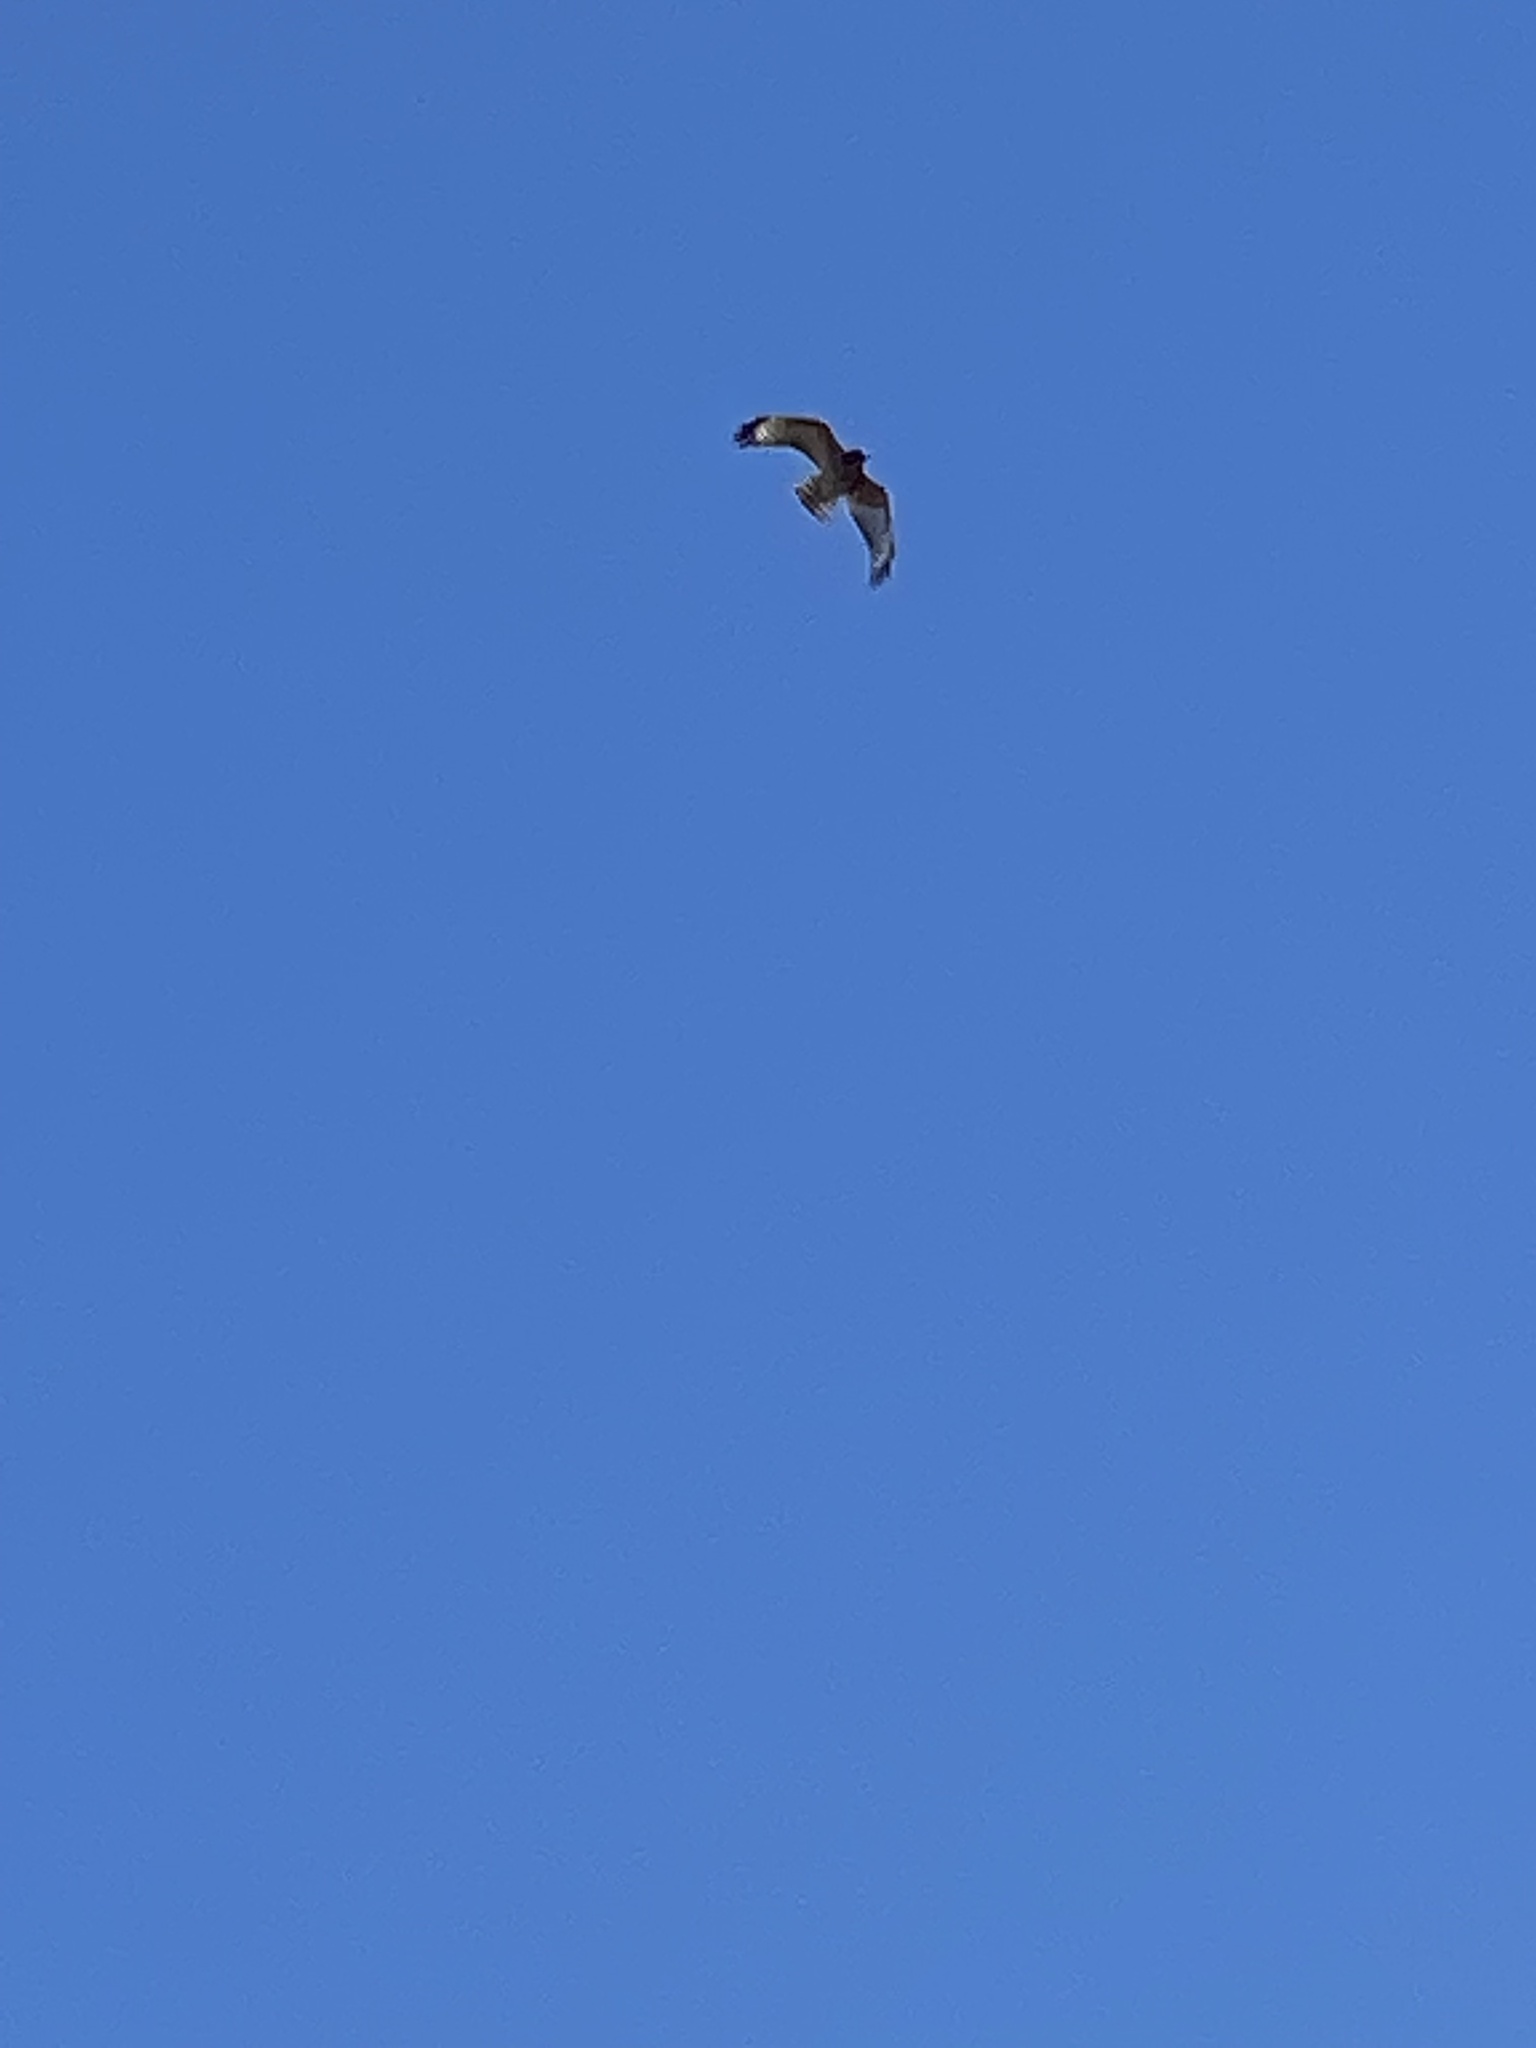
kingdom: Animalia
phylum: Chordata
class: Aves
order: Accipitriformes
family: Accipitridae
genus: Buteo
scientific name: Buteo lineatus
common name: Red-shouldered hawk
